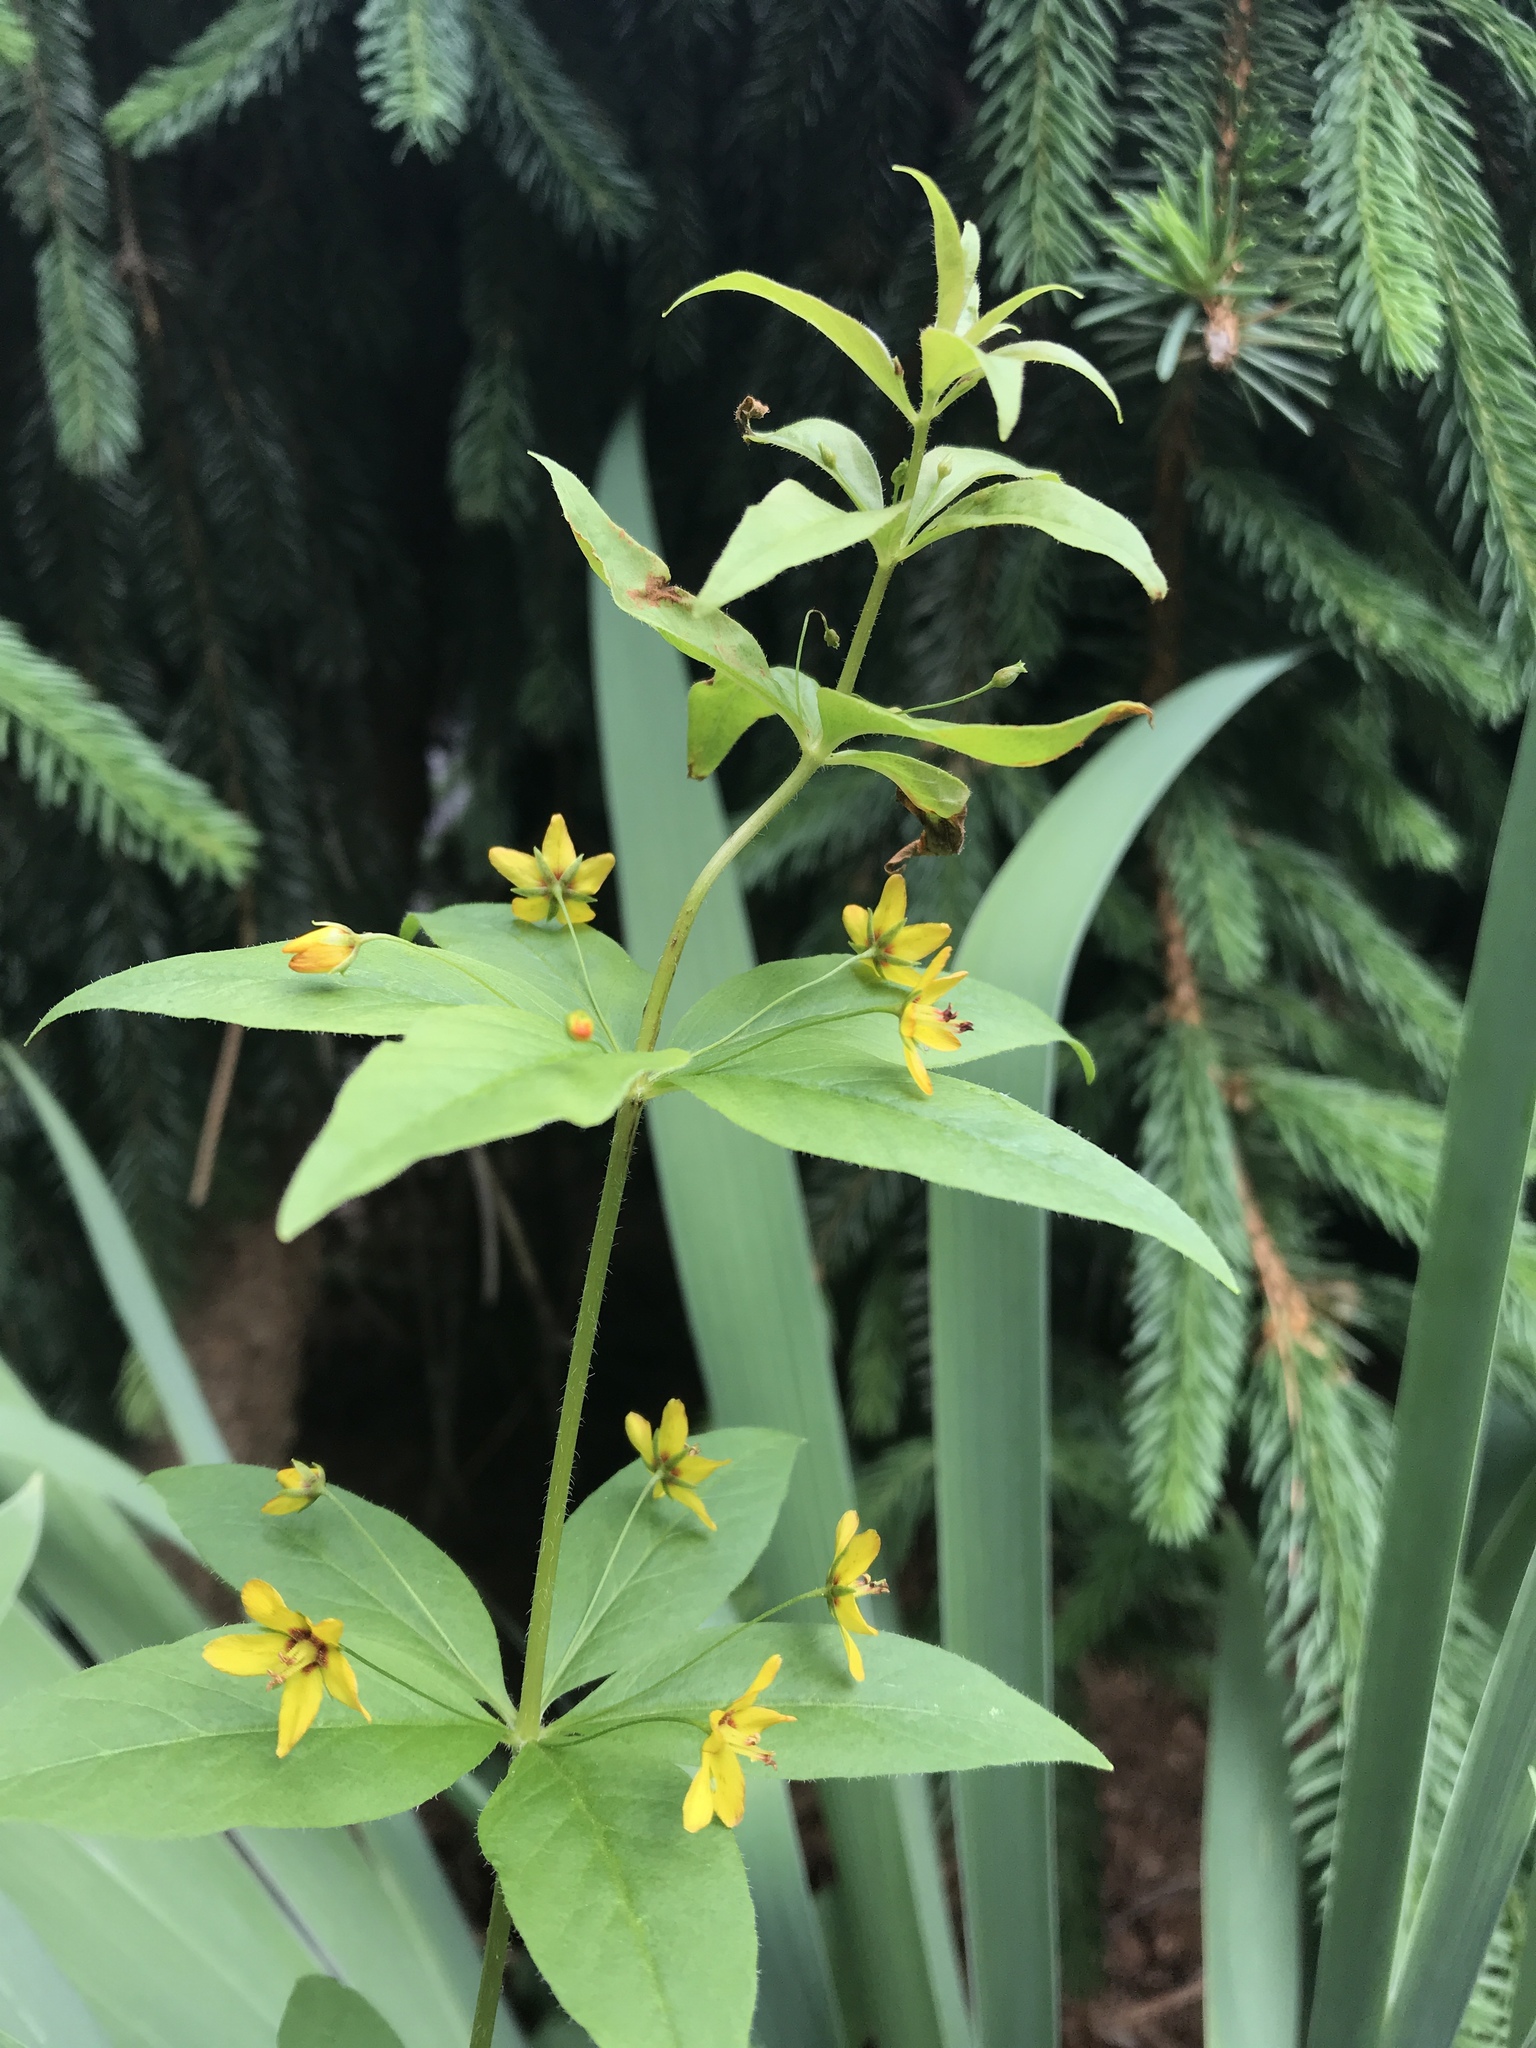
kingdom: Plantae
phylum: Tracheophyta
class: Magnoliopsida
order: Ericales
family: Primulaceae
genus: Lysimachia
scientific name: Lysimachia quadrifolia
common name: Whorled loosestrife
